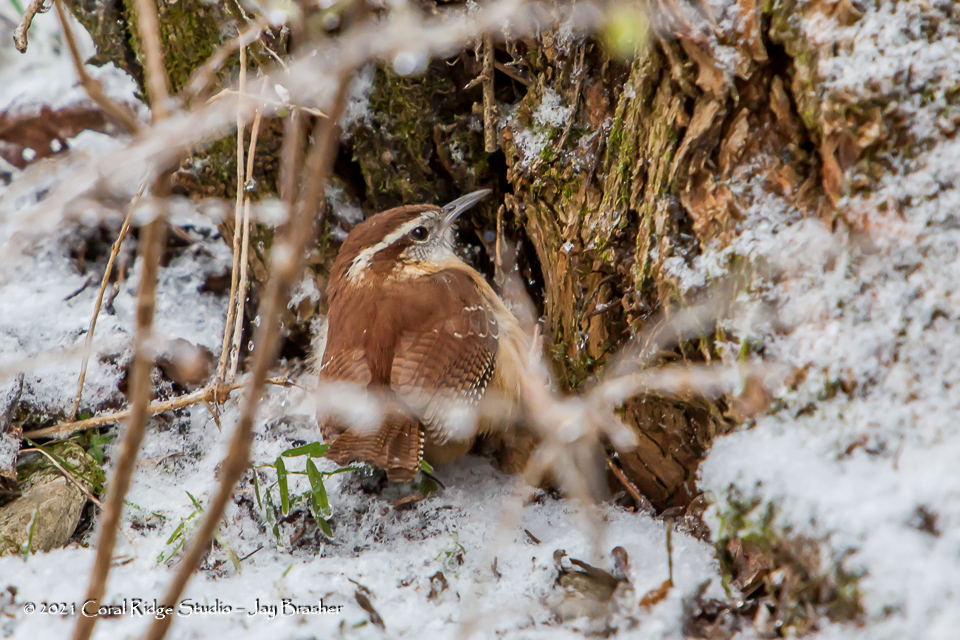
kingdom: Animalia
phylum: Chordata
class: Aves
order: Passeriformes
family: Troglodytidae
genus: Thryothorus
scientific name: Thryothorus ludovicianus
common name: Carolina wren
